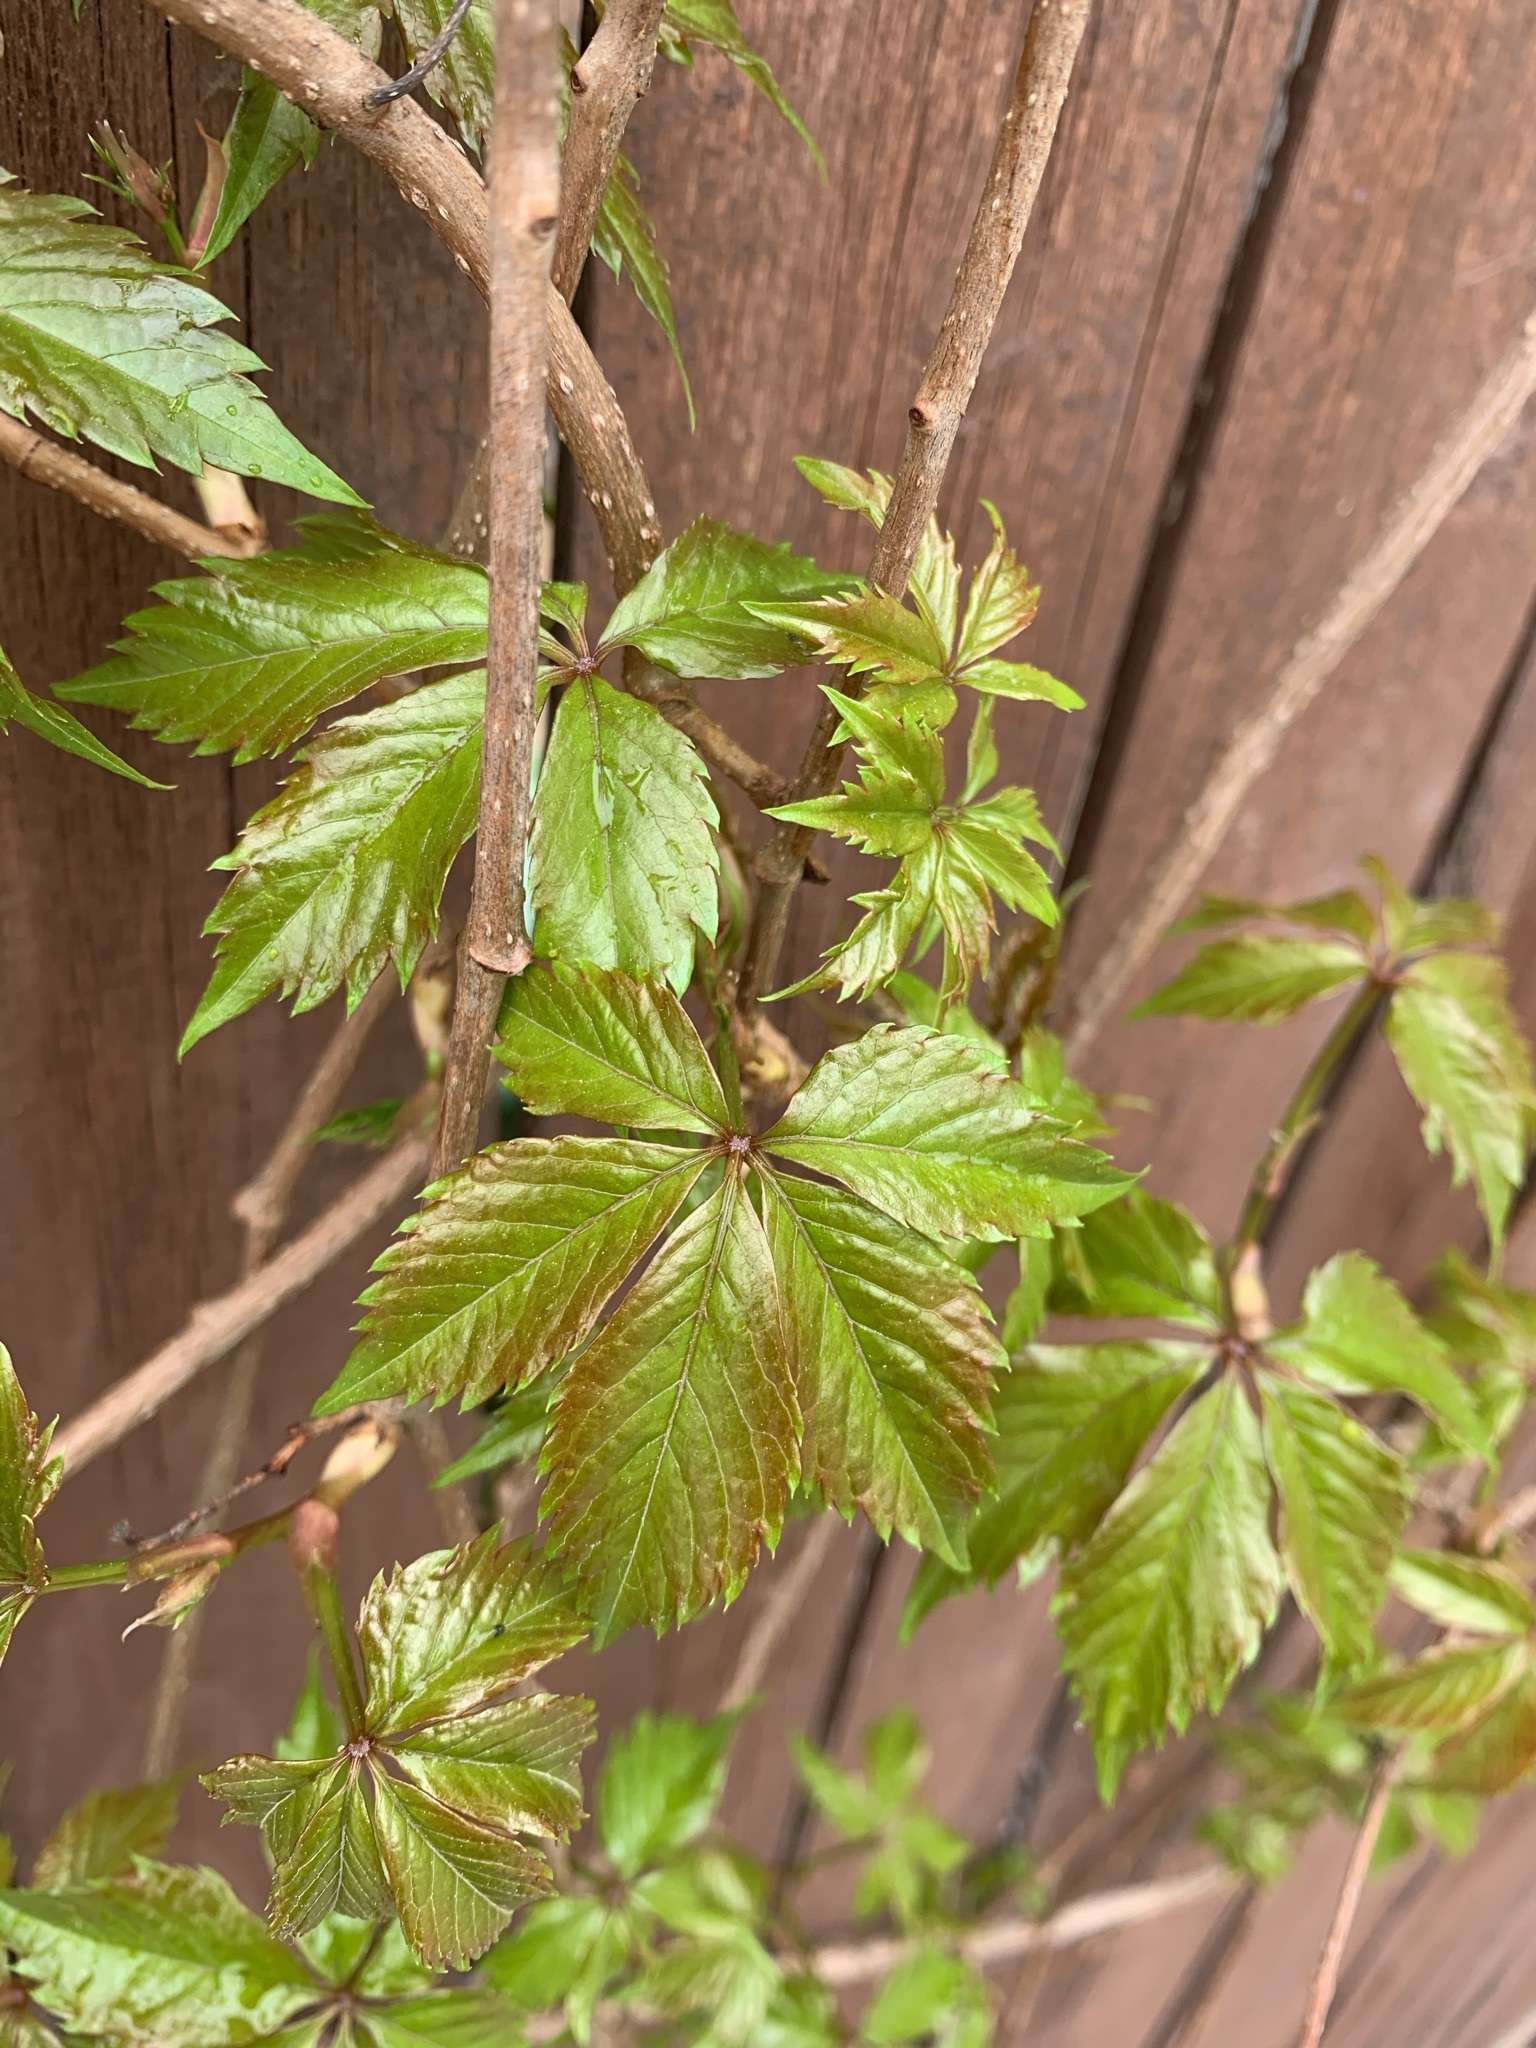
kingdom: Plantae
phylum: Tracheophyta
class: Magnoliopsida
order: Vitales
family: Vitaceae
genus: Parthenocissus
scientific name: Parthenocissus quinquefolia
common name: Virginia-creeper
